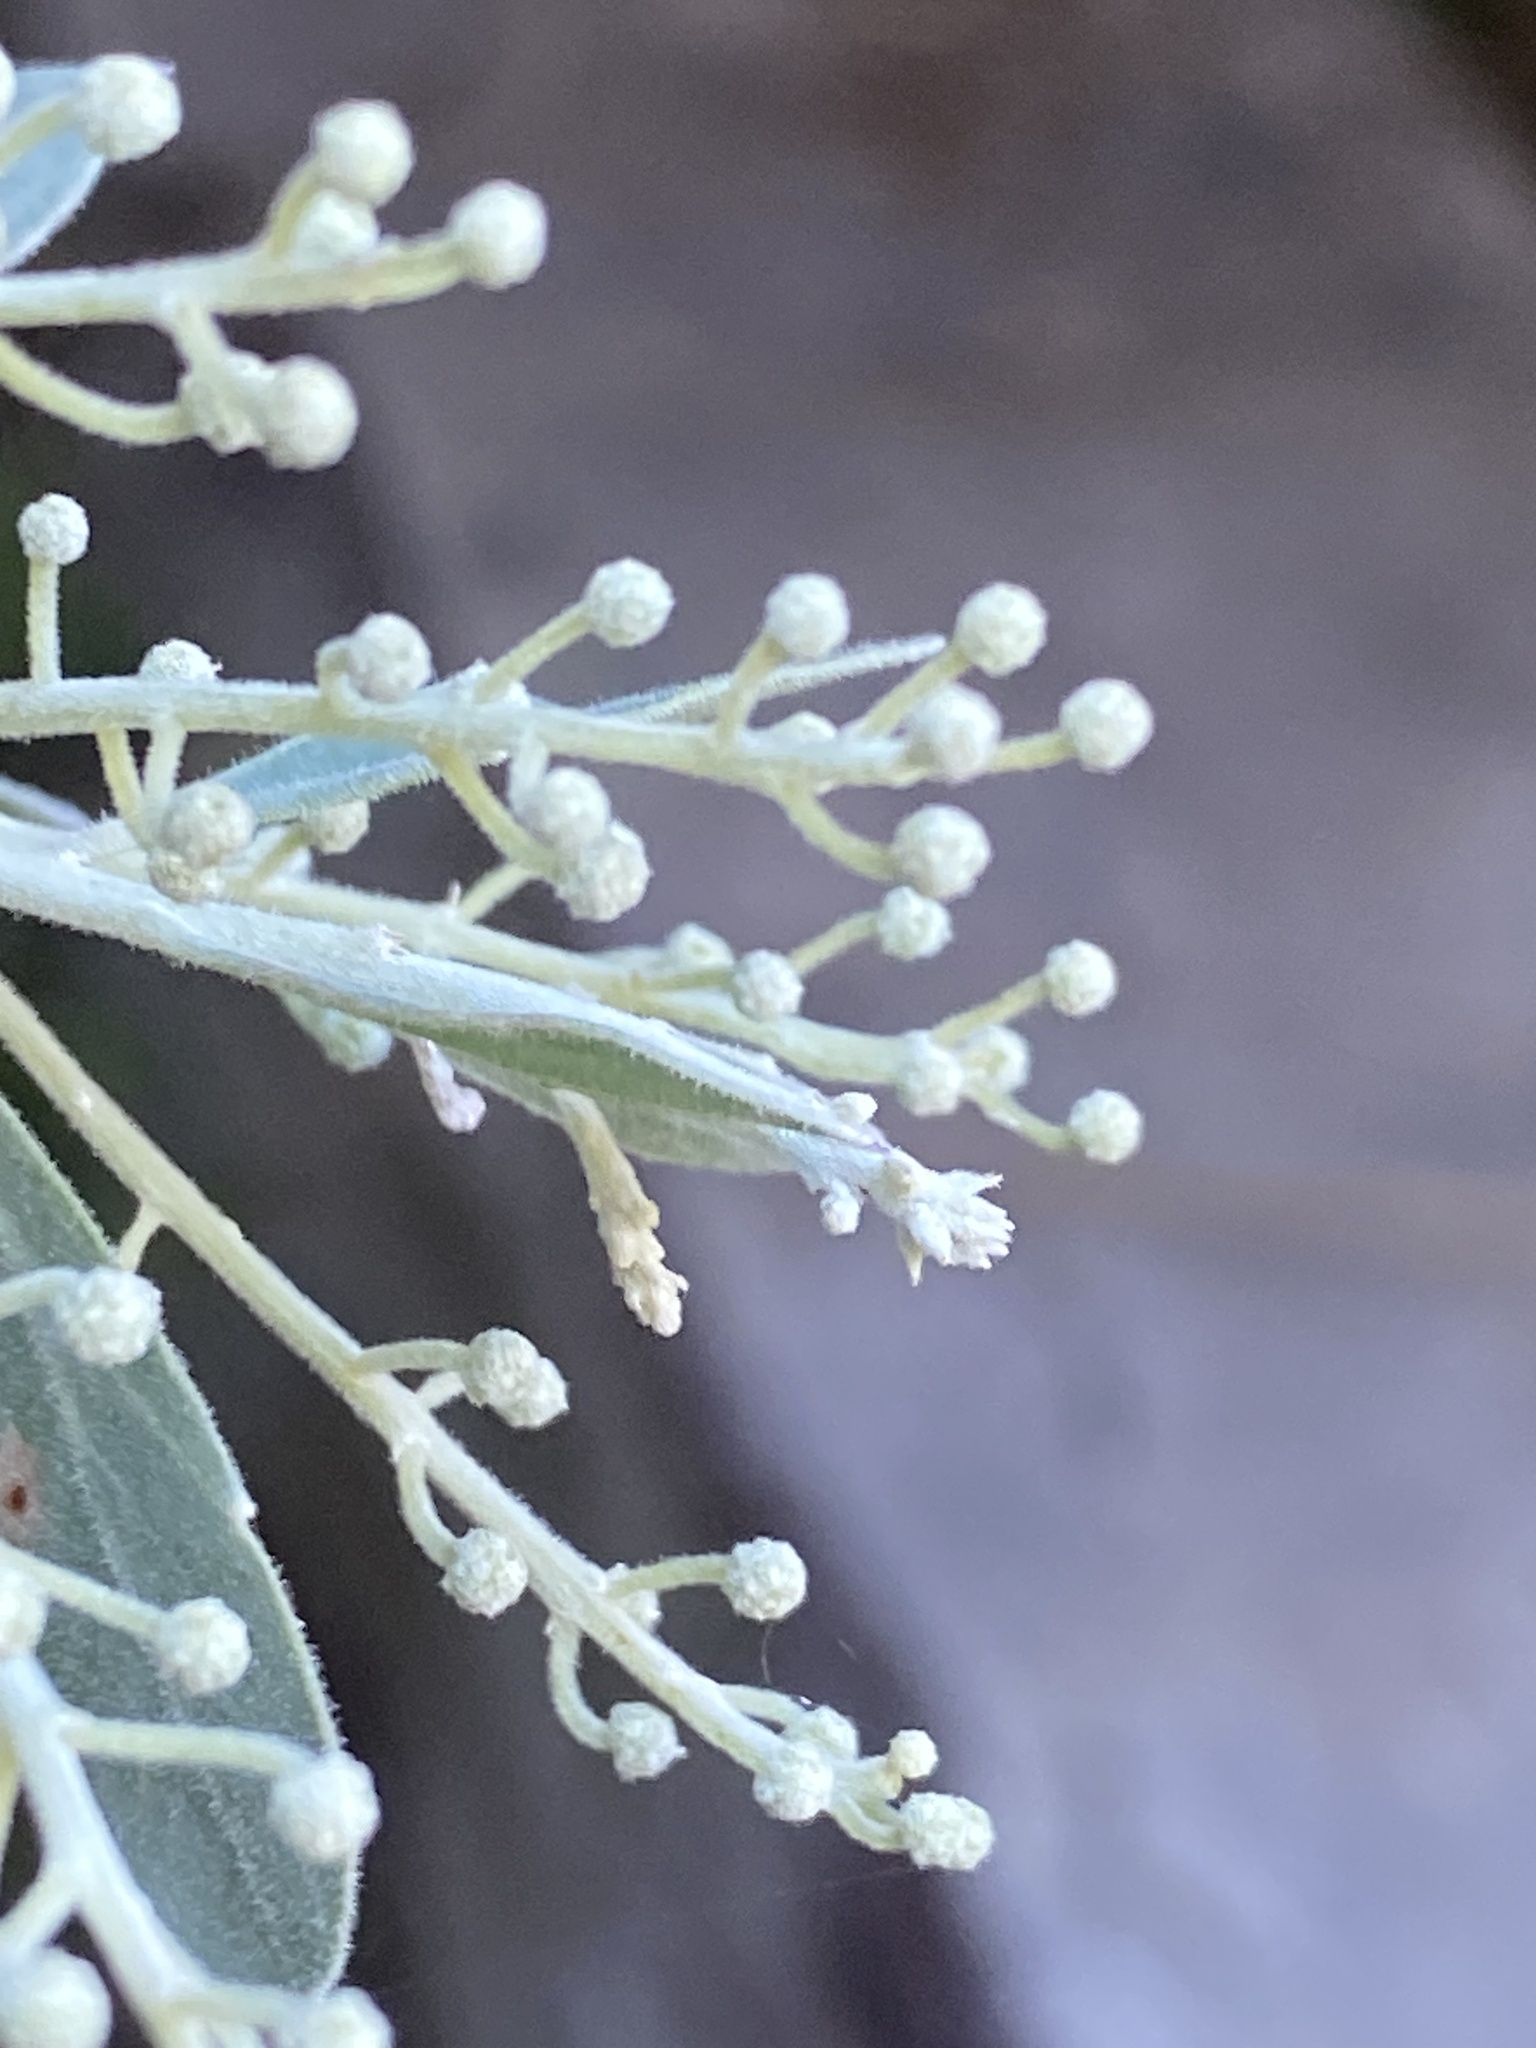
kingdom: Plantae
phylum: Tracheophyta
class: Magnoliopsida
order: Fabales
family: Fabaceae
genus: Acacia
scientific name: Acacia podalyriifolia
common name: Pearl wattle
